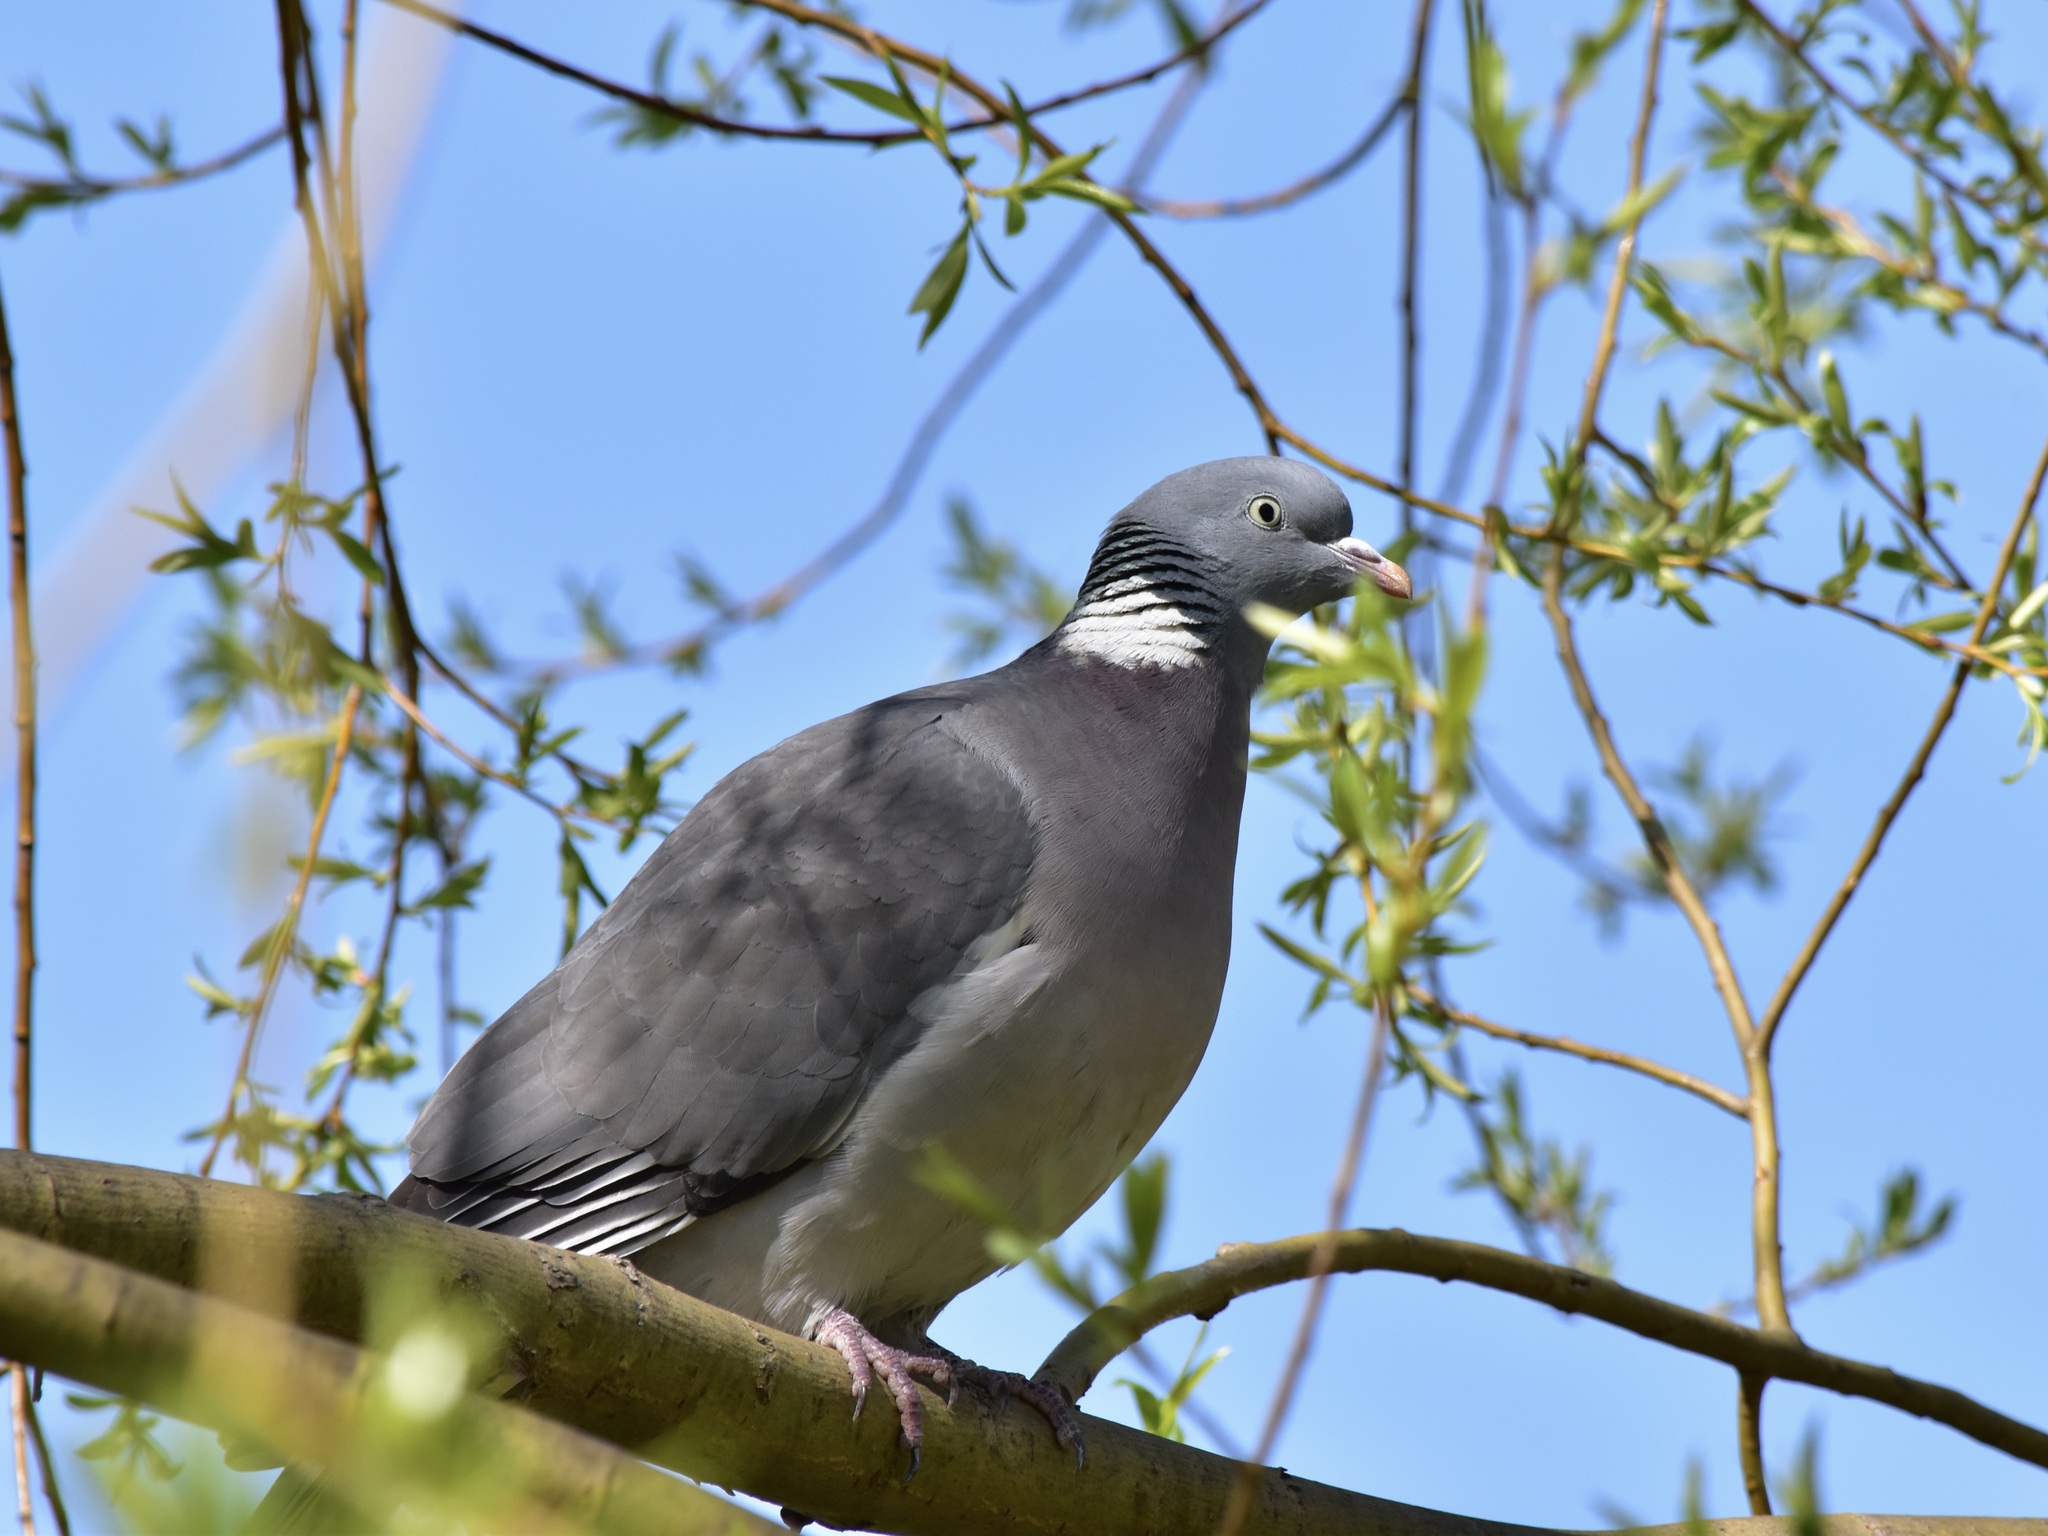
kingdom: Animalia
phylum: Chordata
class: Aves
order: Columbiformes
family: Columbidae
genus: Columba
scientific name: Columba palumbus
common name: Common wood pigeon
